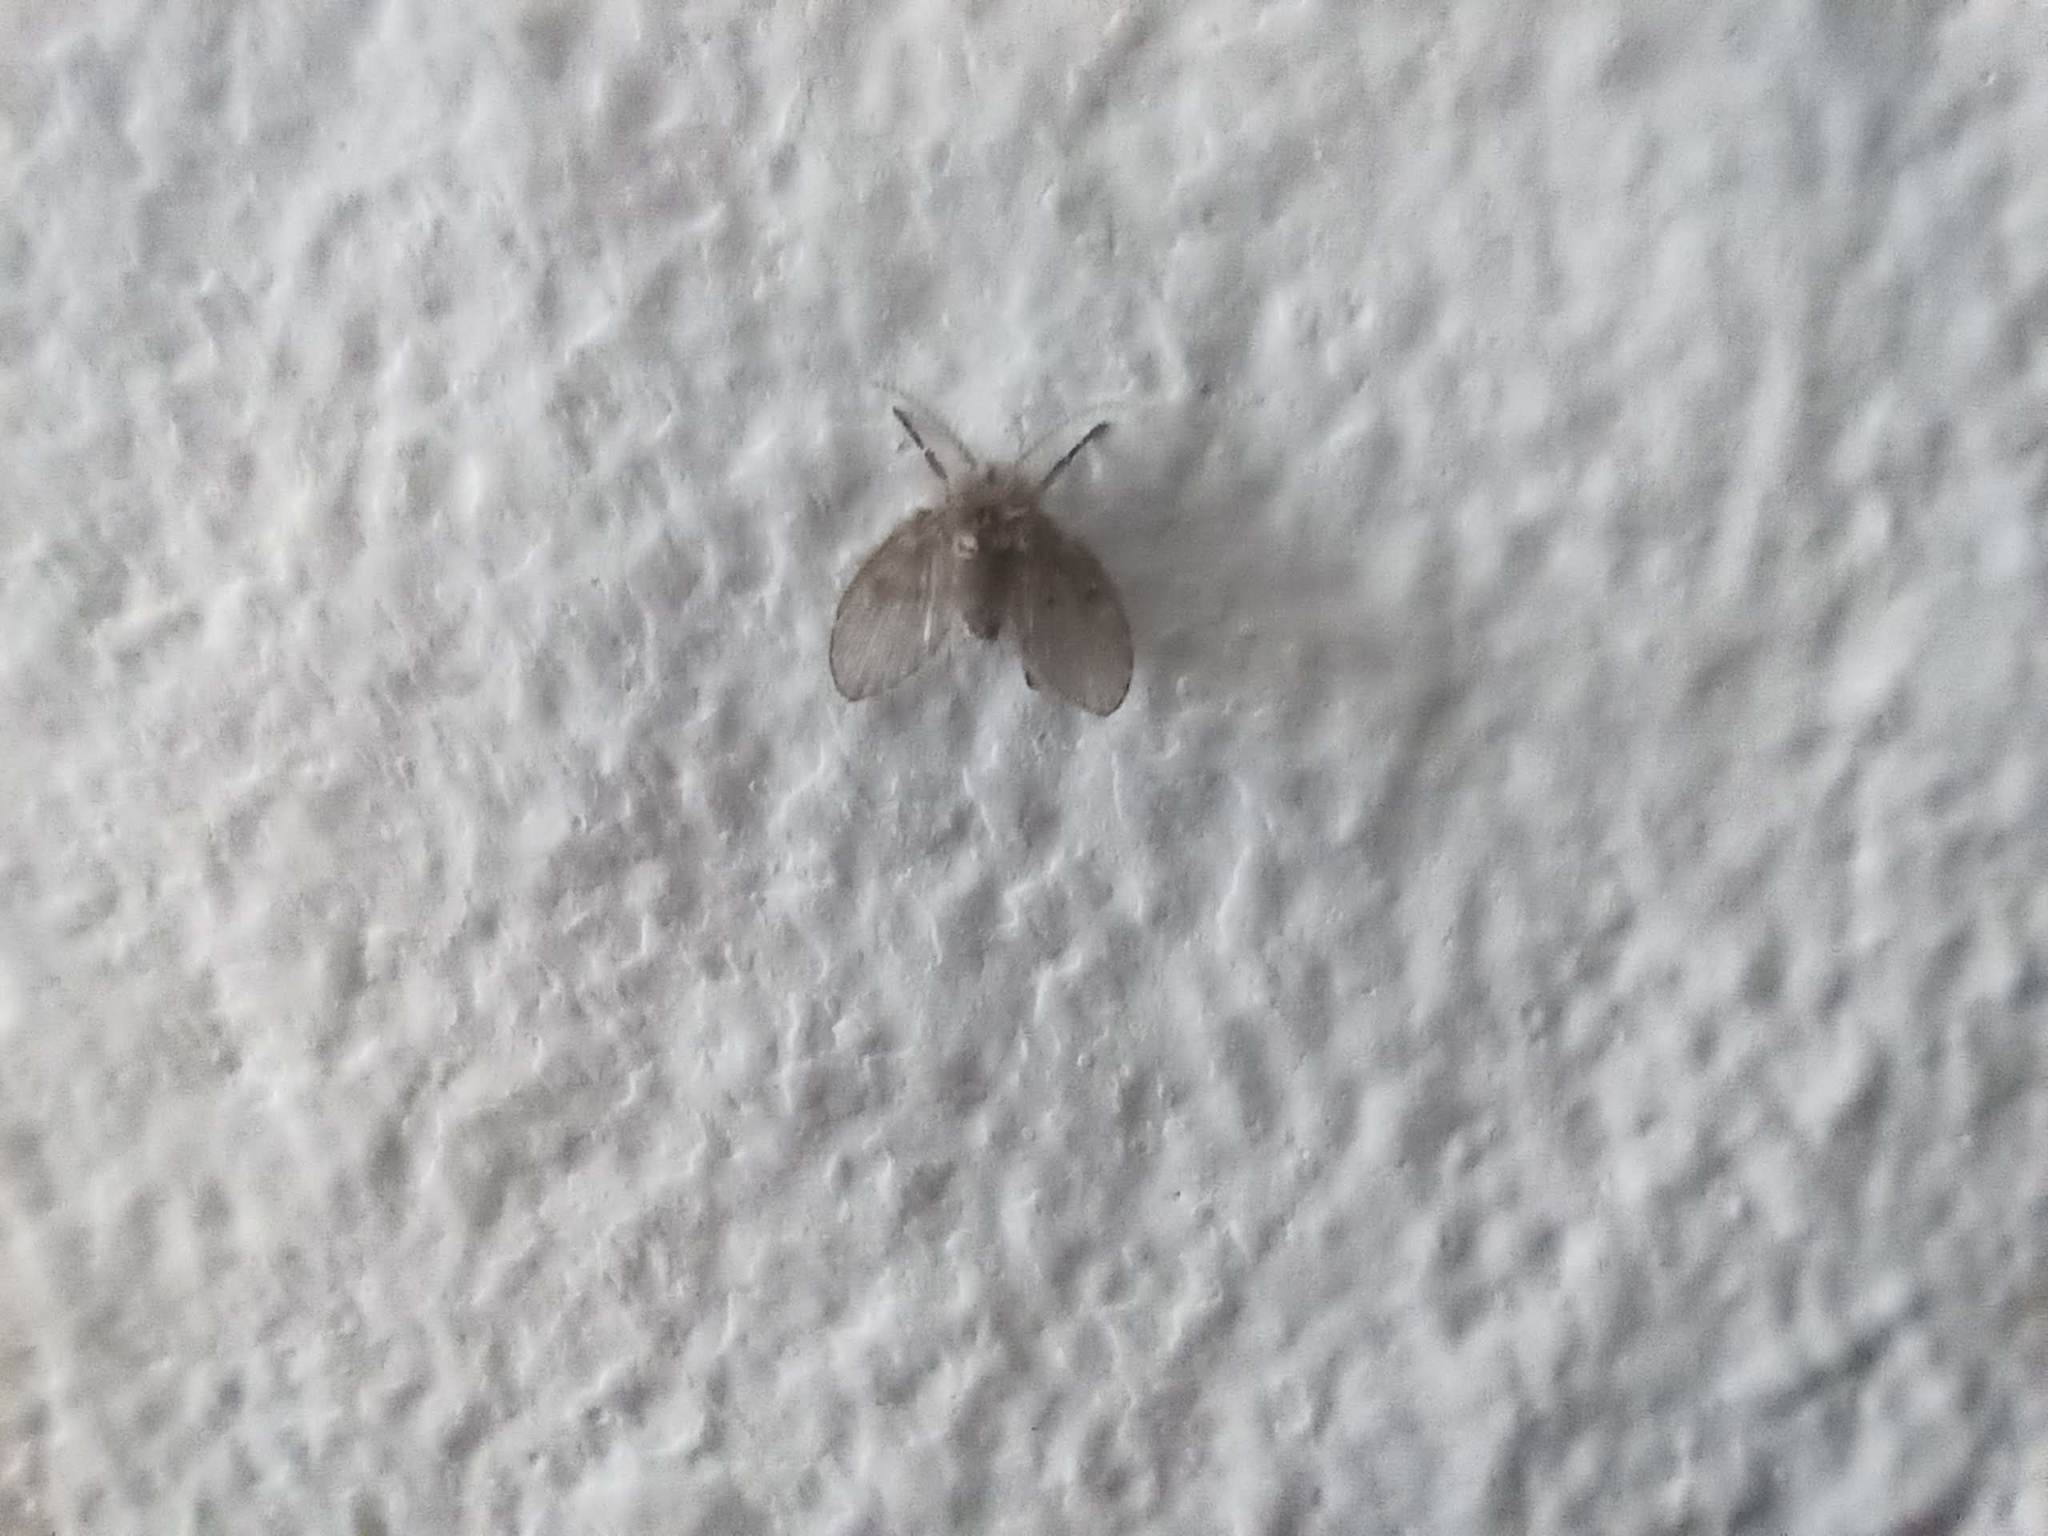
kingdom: Animalia
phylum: Arthropoda
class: Insecta
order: Diptera
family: Psychodidae
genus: Clogmia
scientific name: Clogmia albipunctatus
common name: White-spotted moth fly
